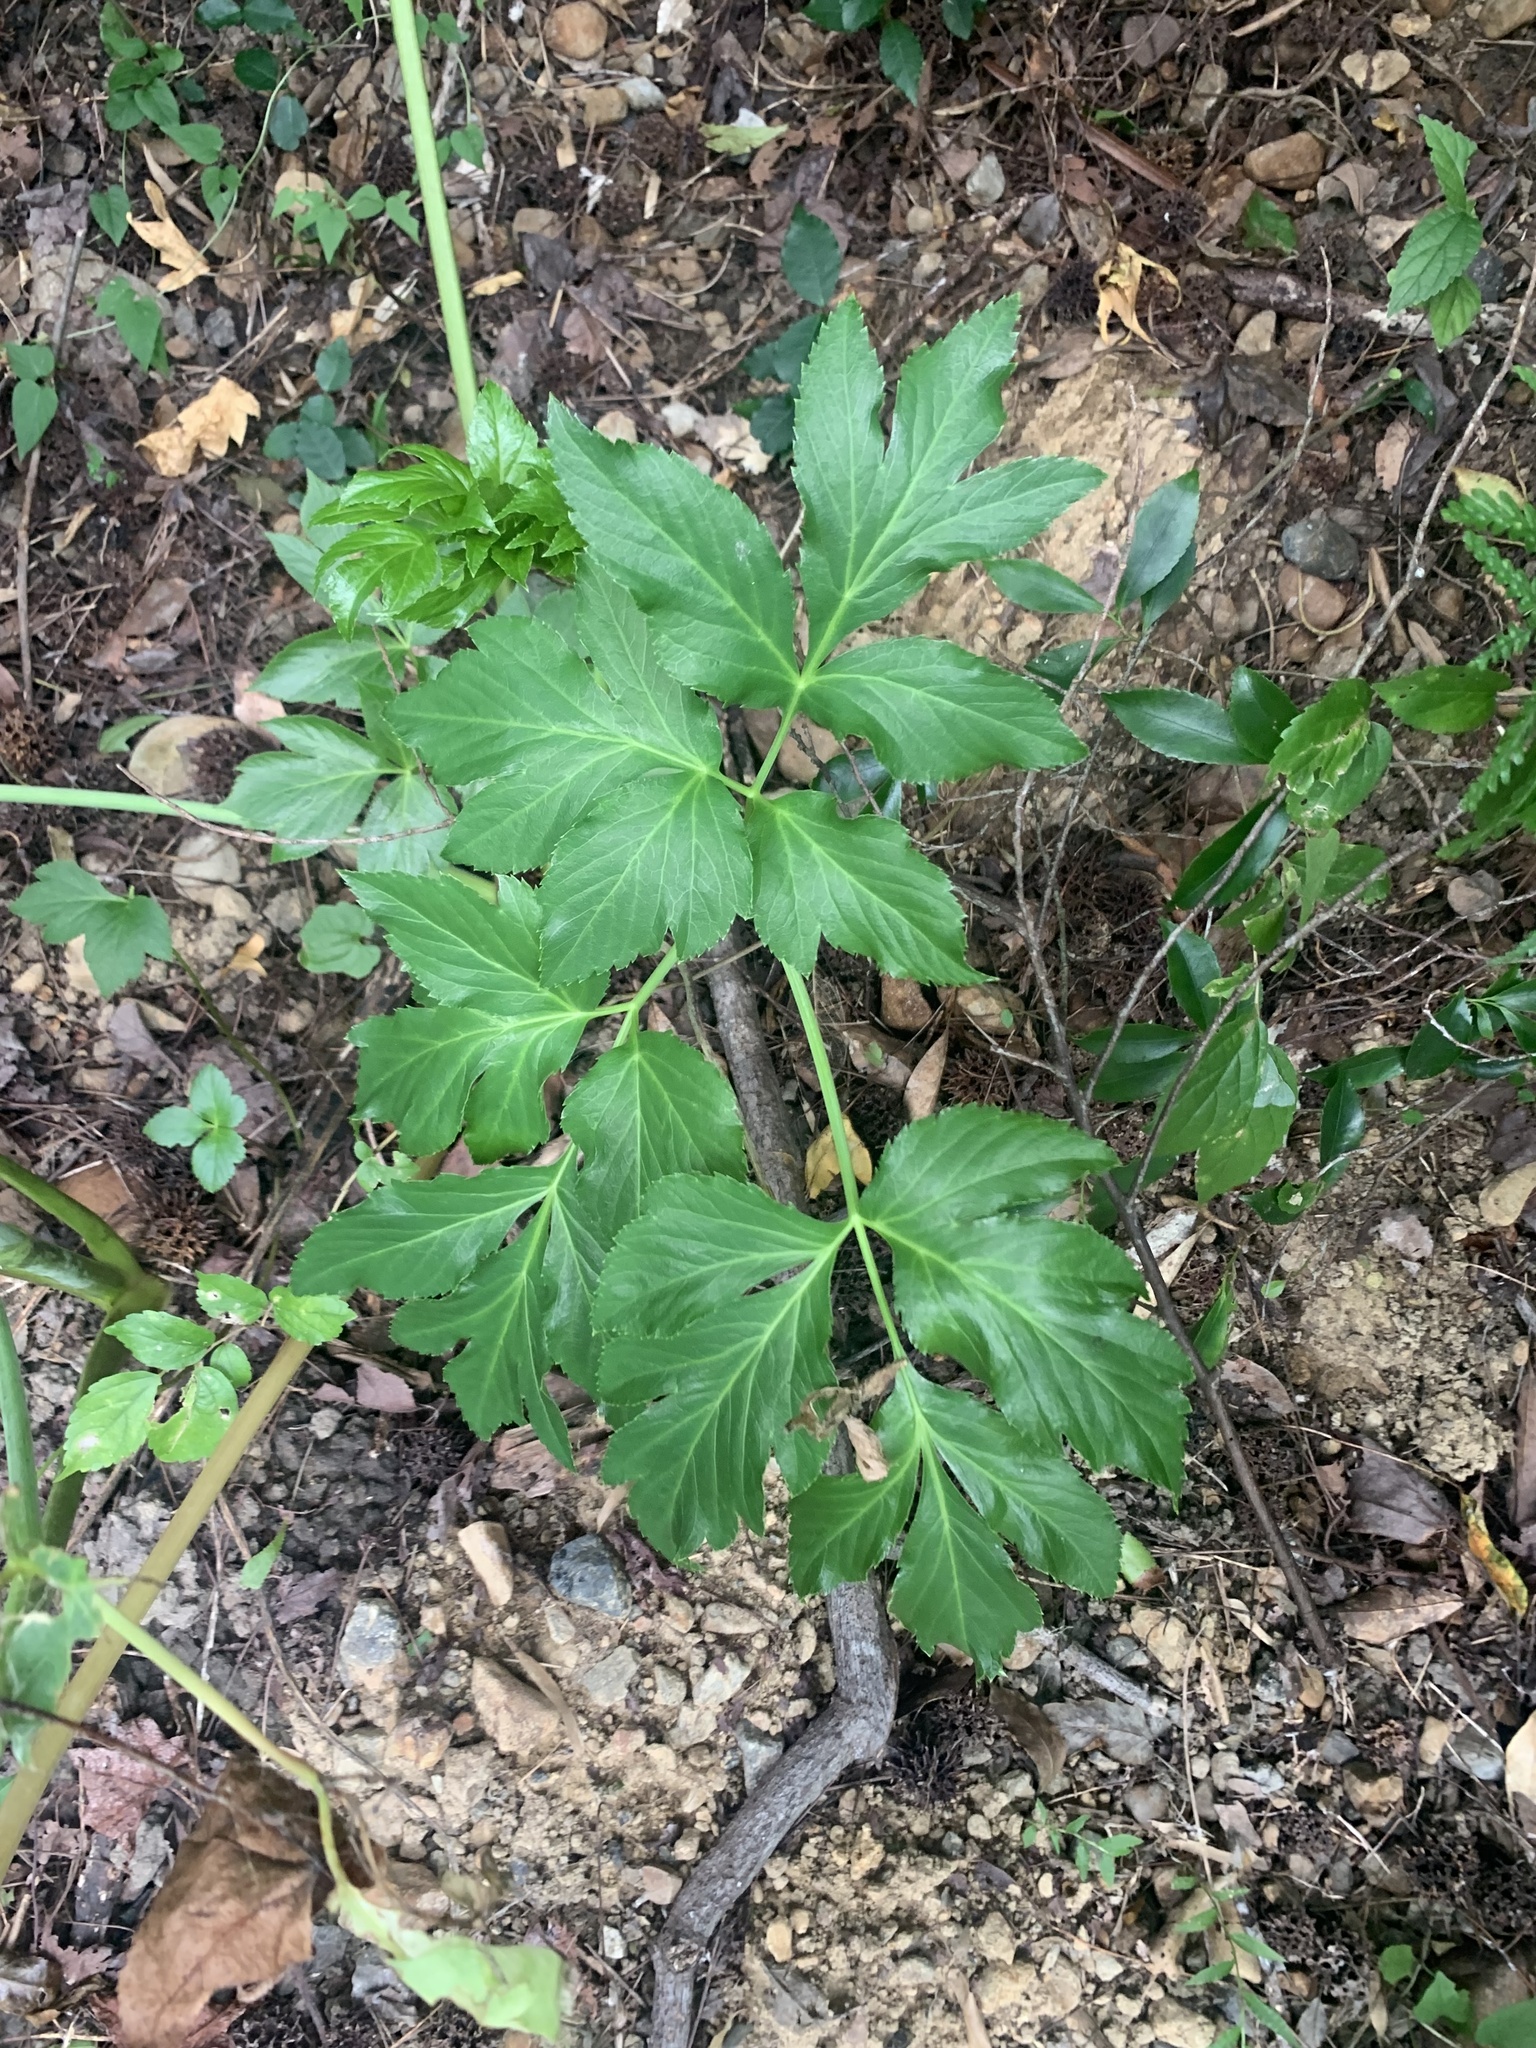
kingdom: Plantae
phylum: Tracheophyta
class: Magnoliopsida
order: Apiales
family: Apiaceae
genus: Angelica
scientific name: Angelica keiskei
